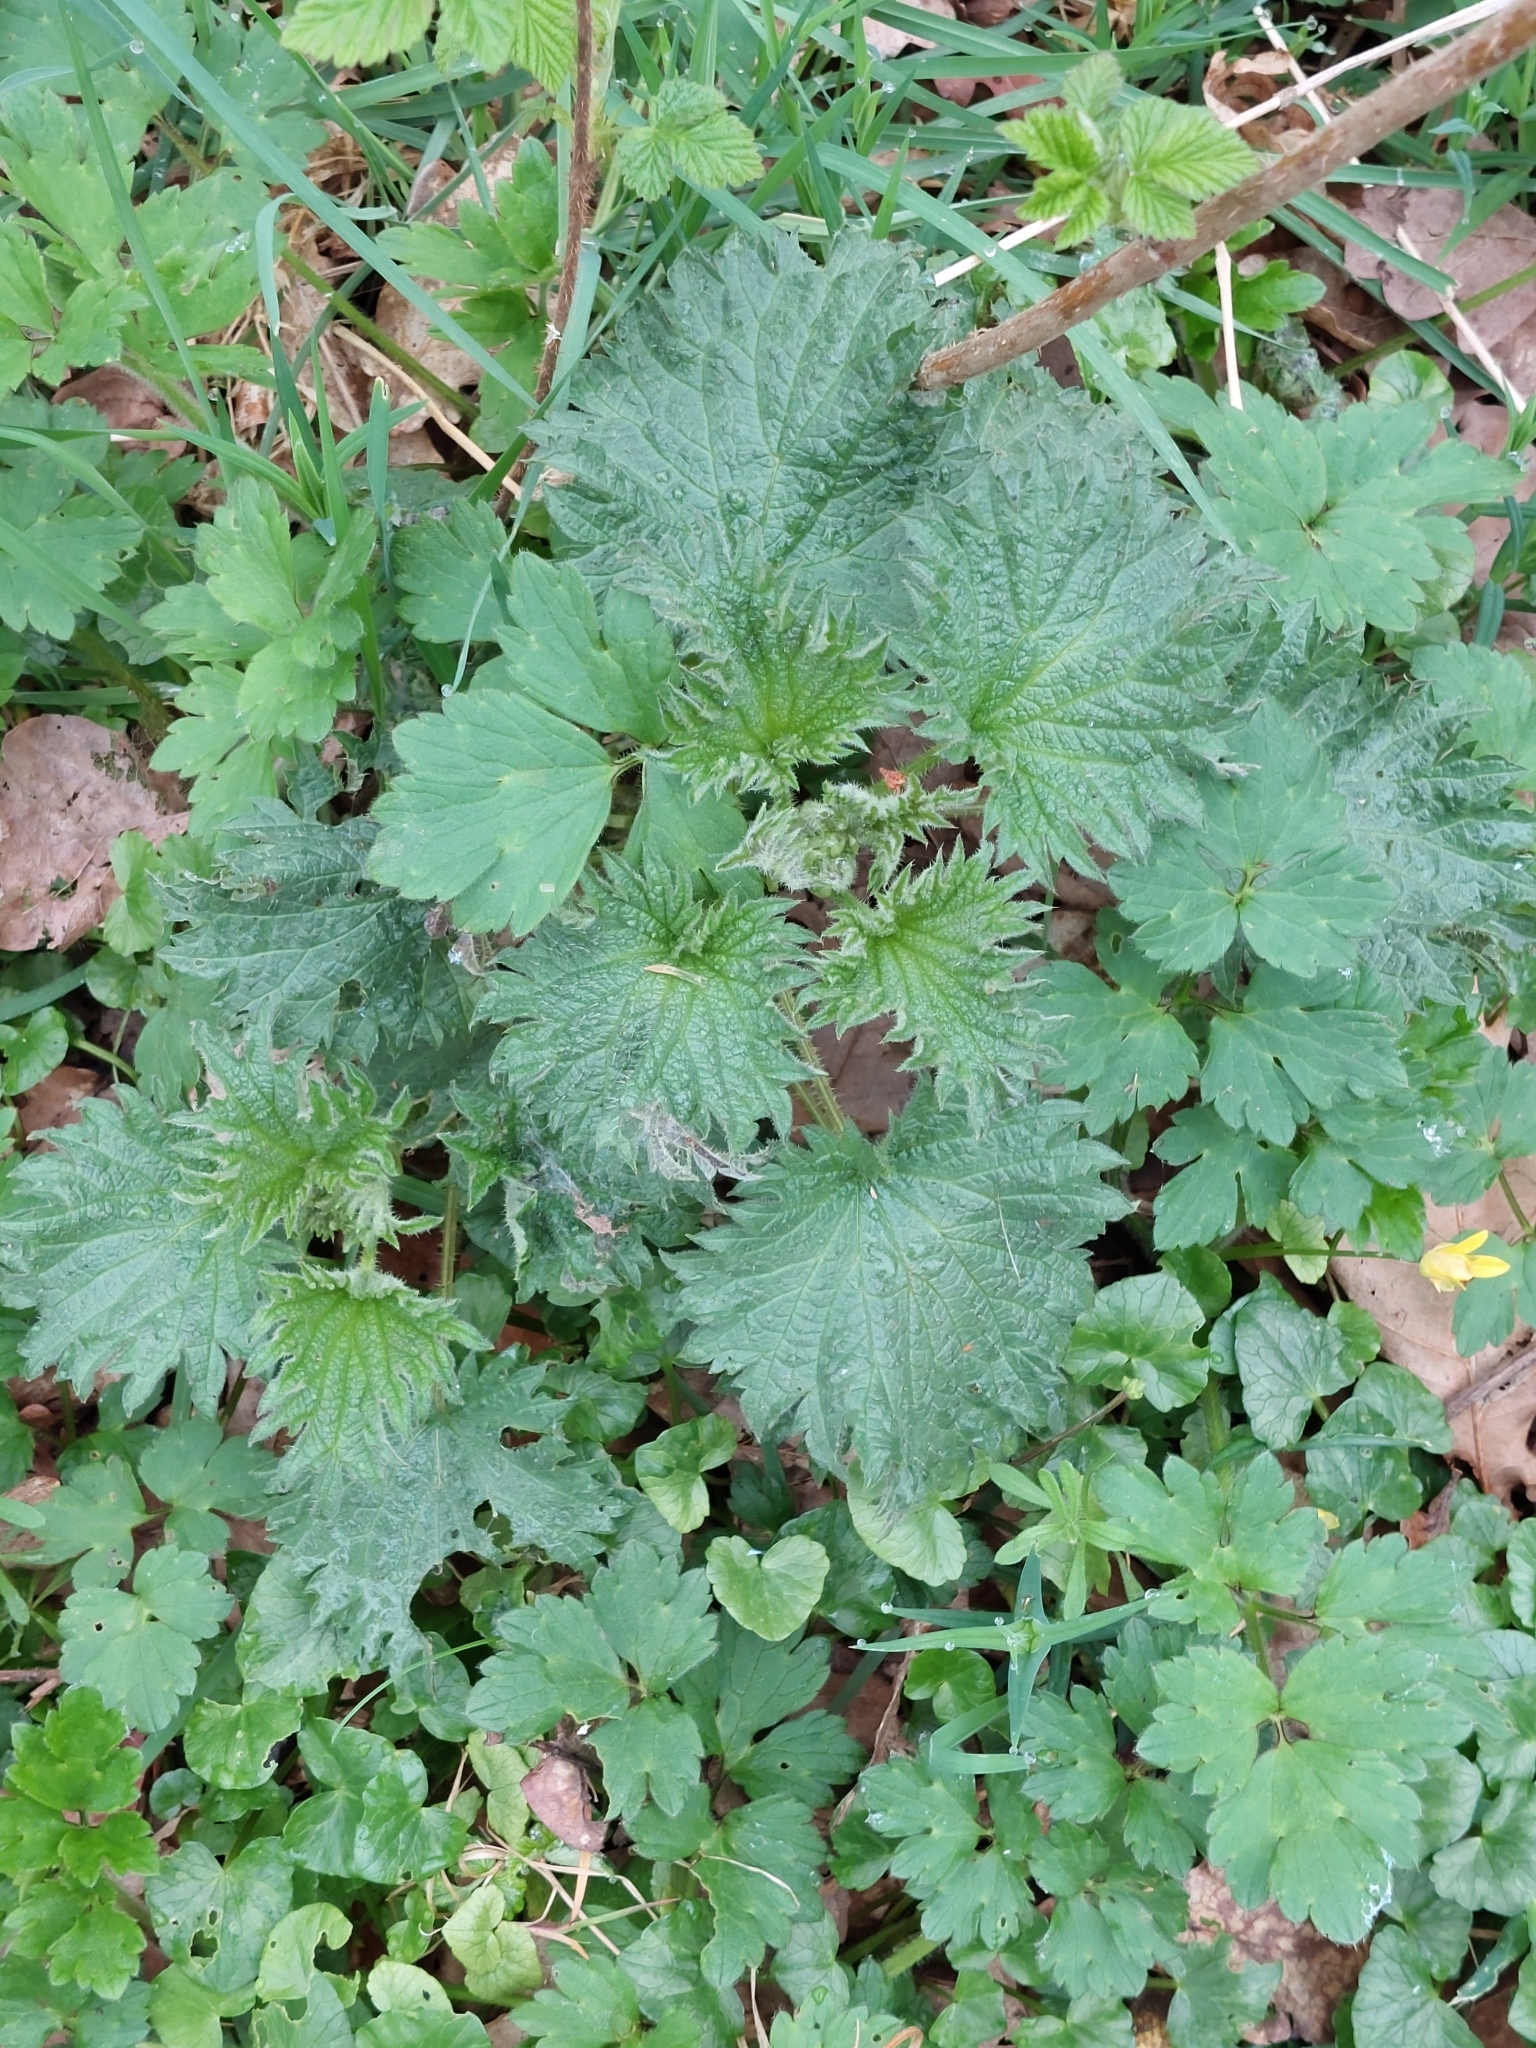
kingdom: Plantae
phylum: Tracheophyta
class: Magnoliopsida
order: Rosales
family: Urticaceae
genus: Urtica
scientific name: Urtica dioica
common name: Common nettle
